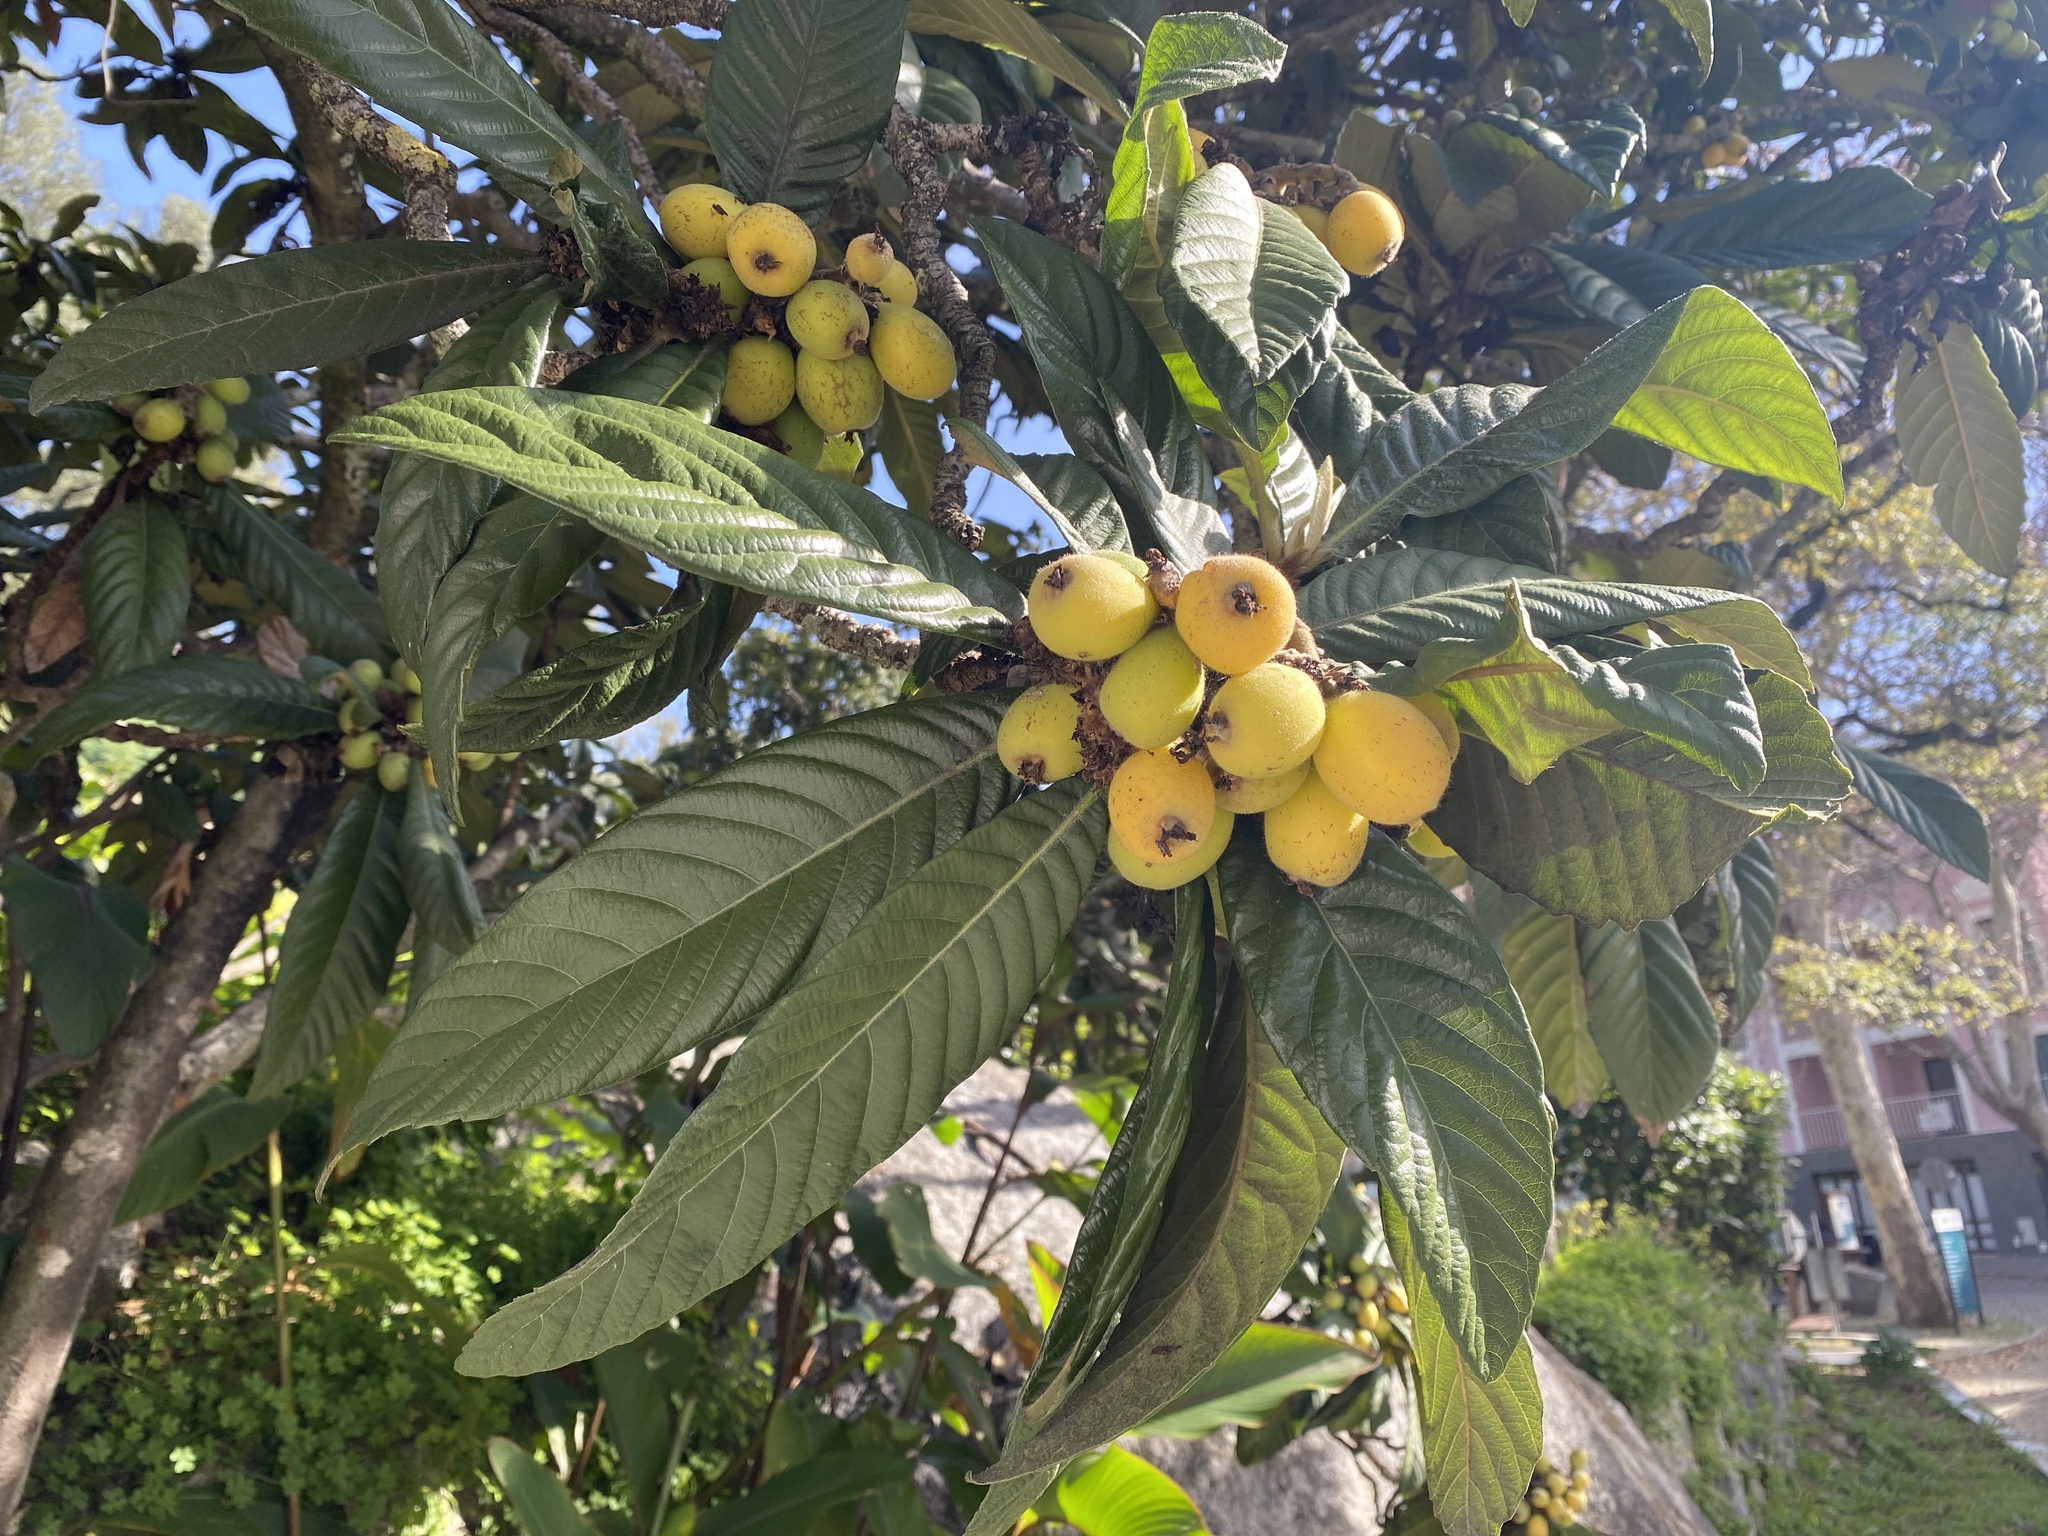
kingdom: Plantae
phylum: Tracheophyta
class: Magnoliopsida
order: Rosales
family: Rosaceae
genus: Rhaphiolepis
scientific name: Rhaphiolepis bibas
